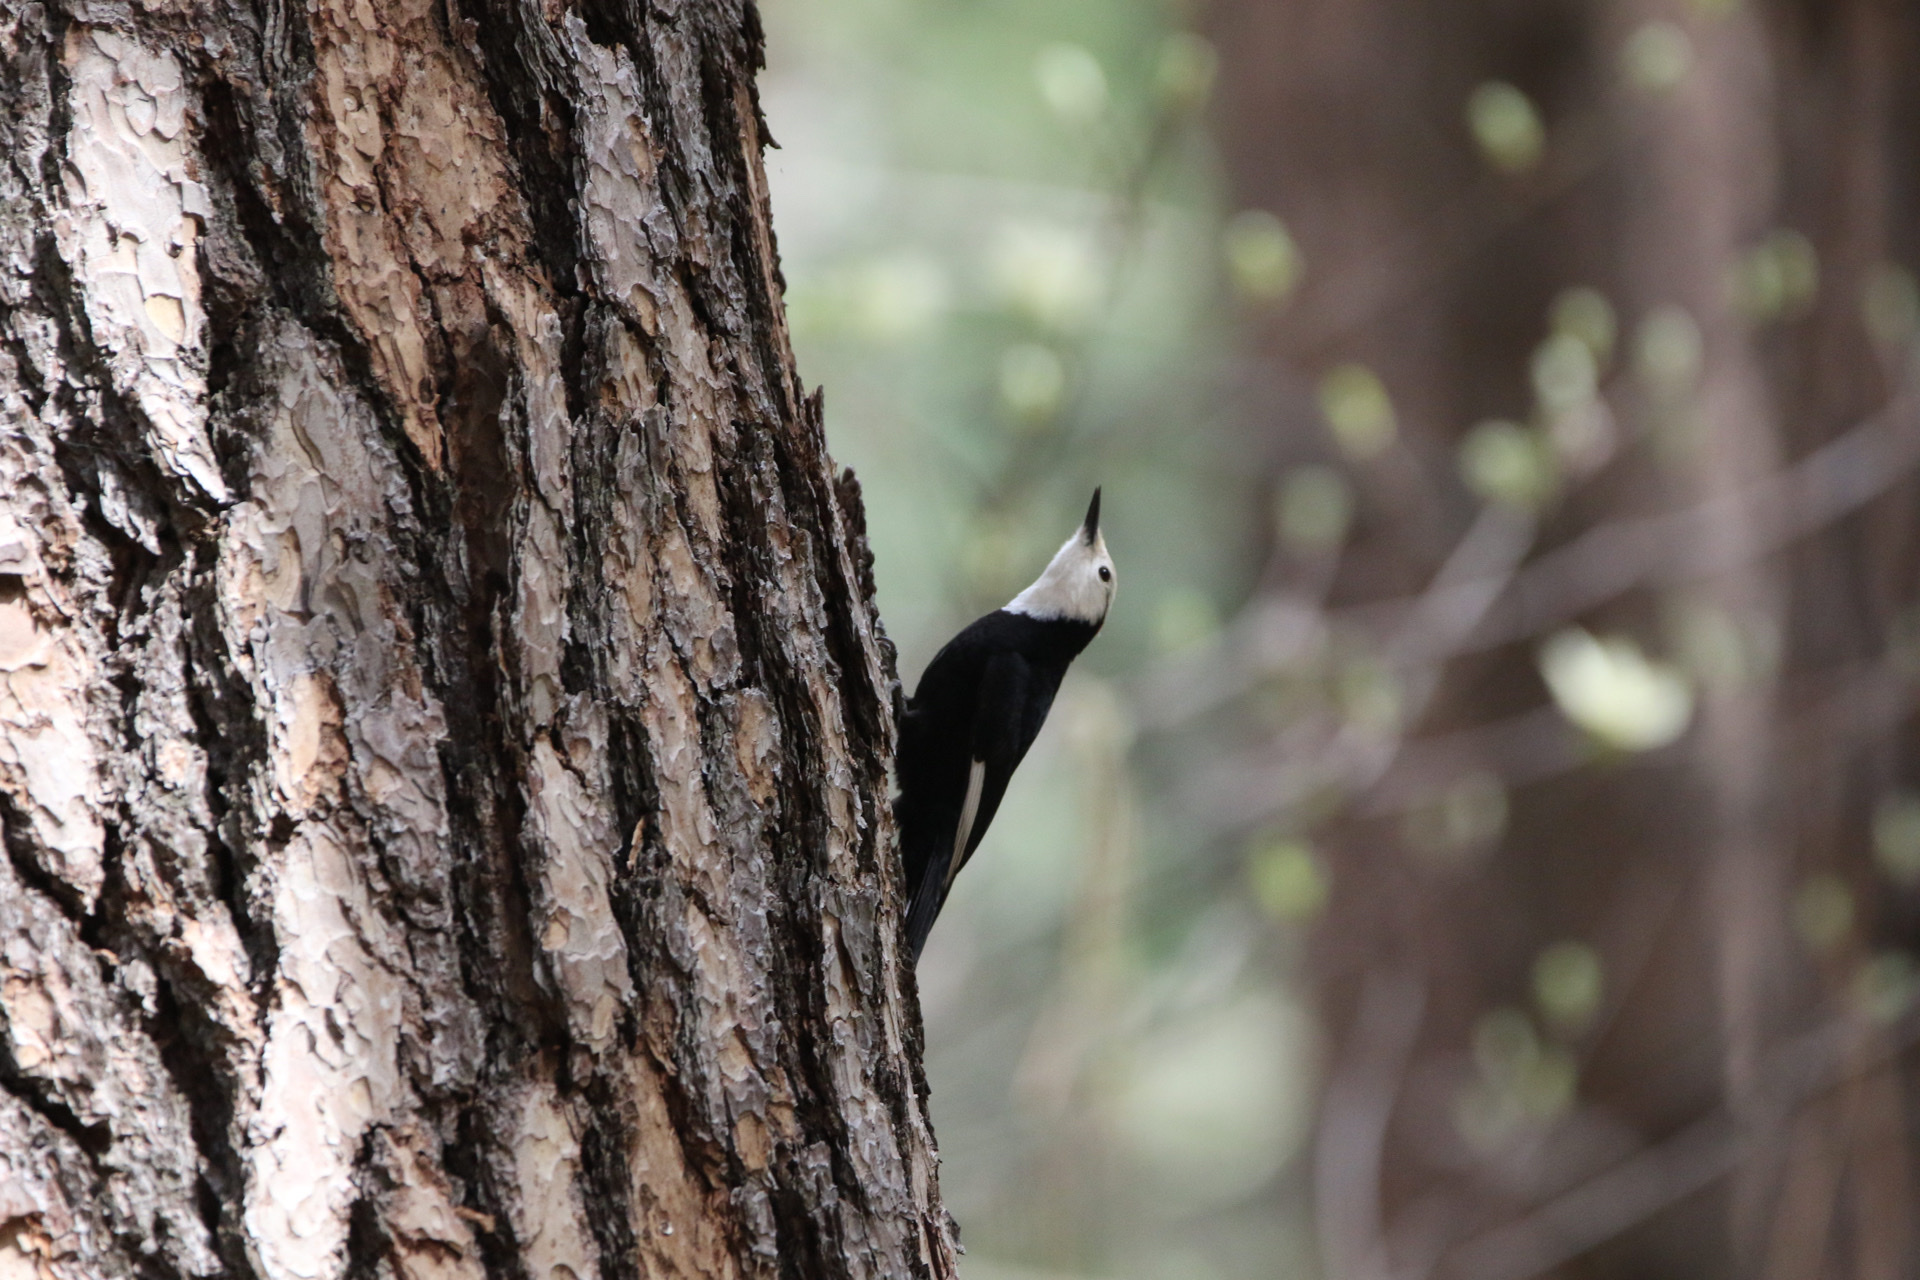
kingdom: Animalia
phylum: Chordata
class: Aves
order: Piciformes
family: Picidae
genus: Leuconotopicus
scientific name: Leuconotopicus albolarvatus
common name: White-headed woodpecker
